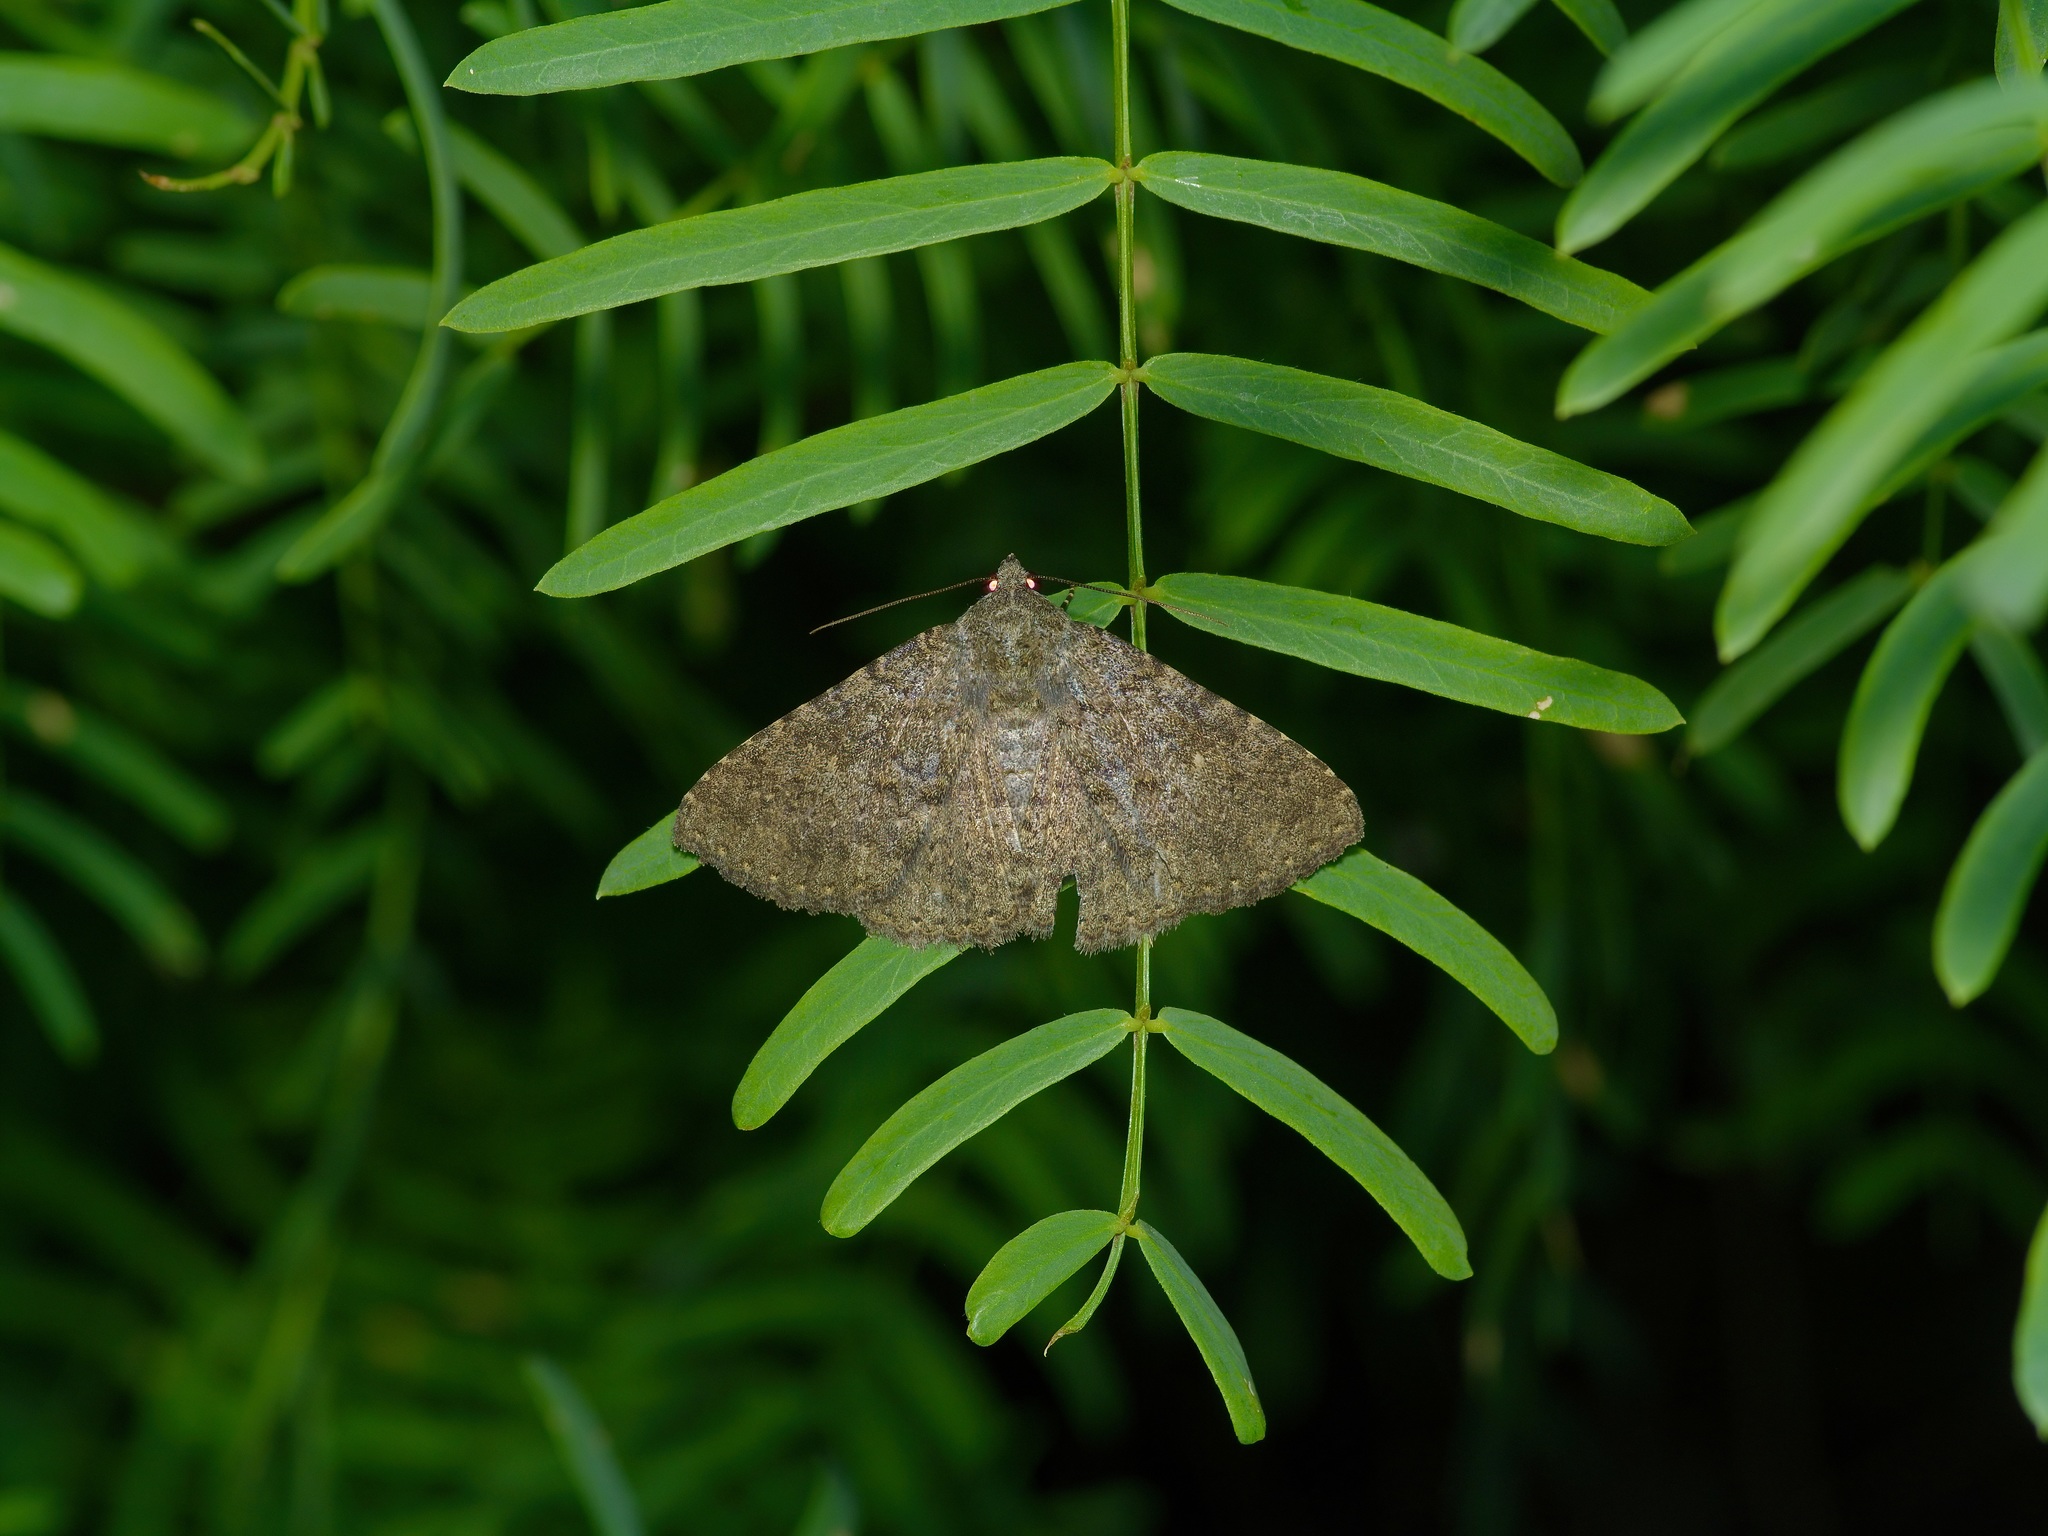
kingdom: Animalia
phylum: Arthropoda
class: Insecta
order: Lepidoptera
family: Erebidae
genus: Matigramma
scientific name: Matigramma obscurior
